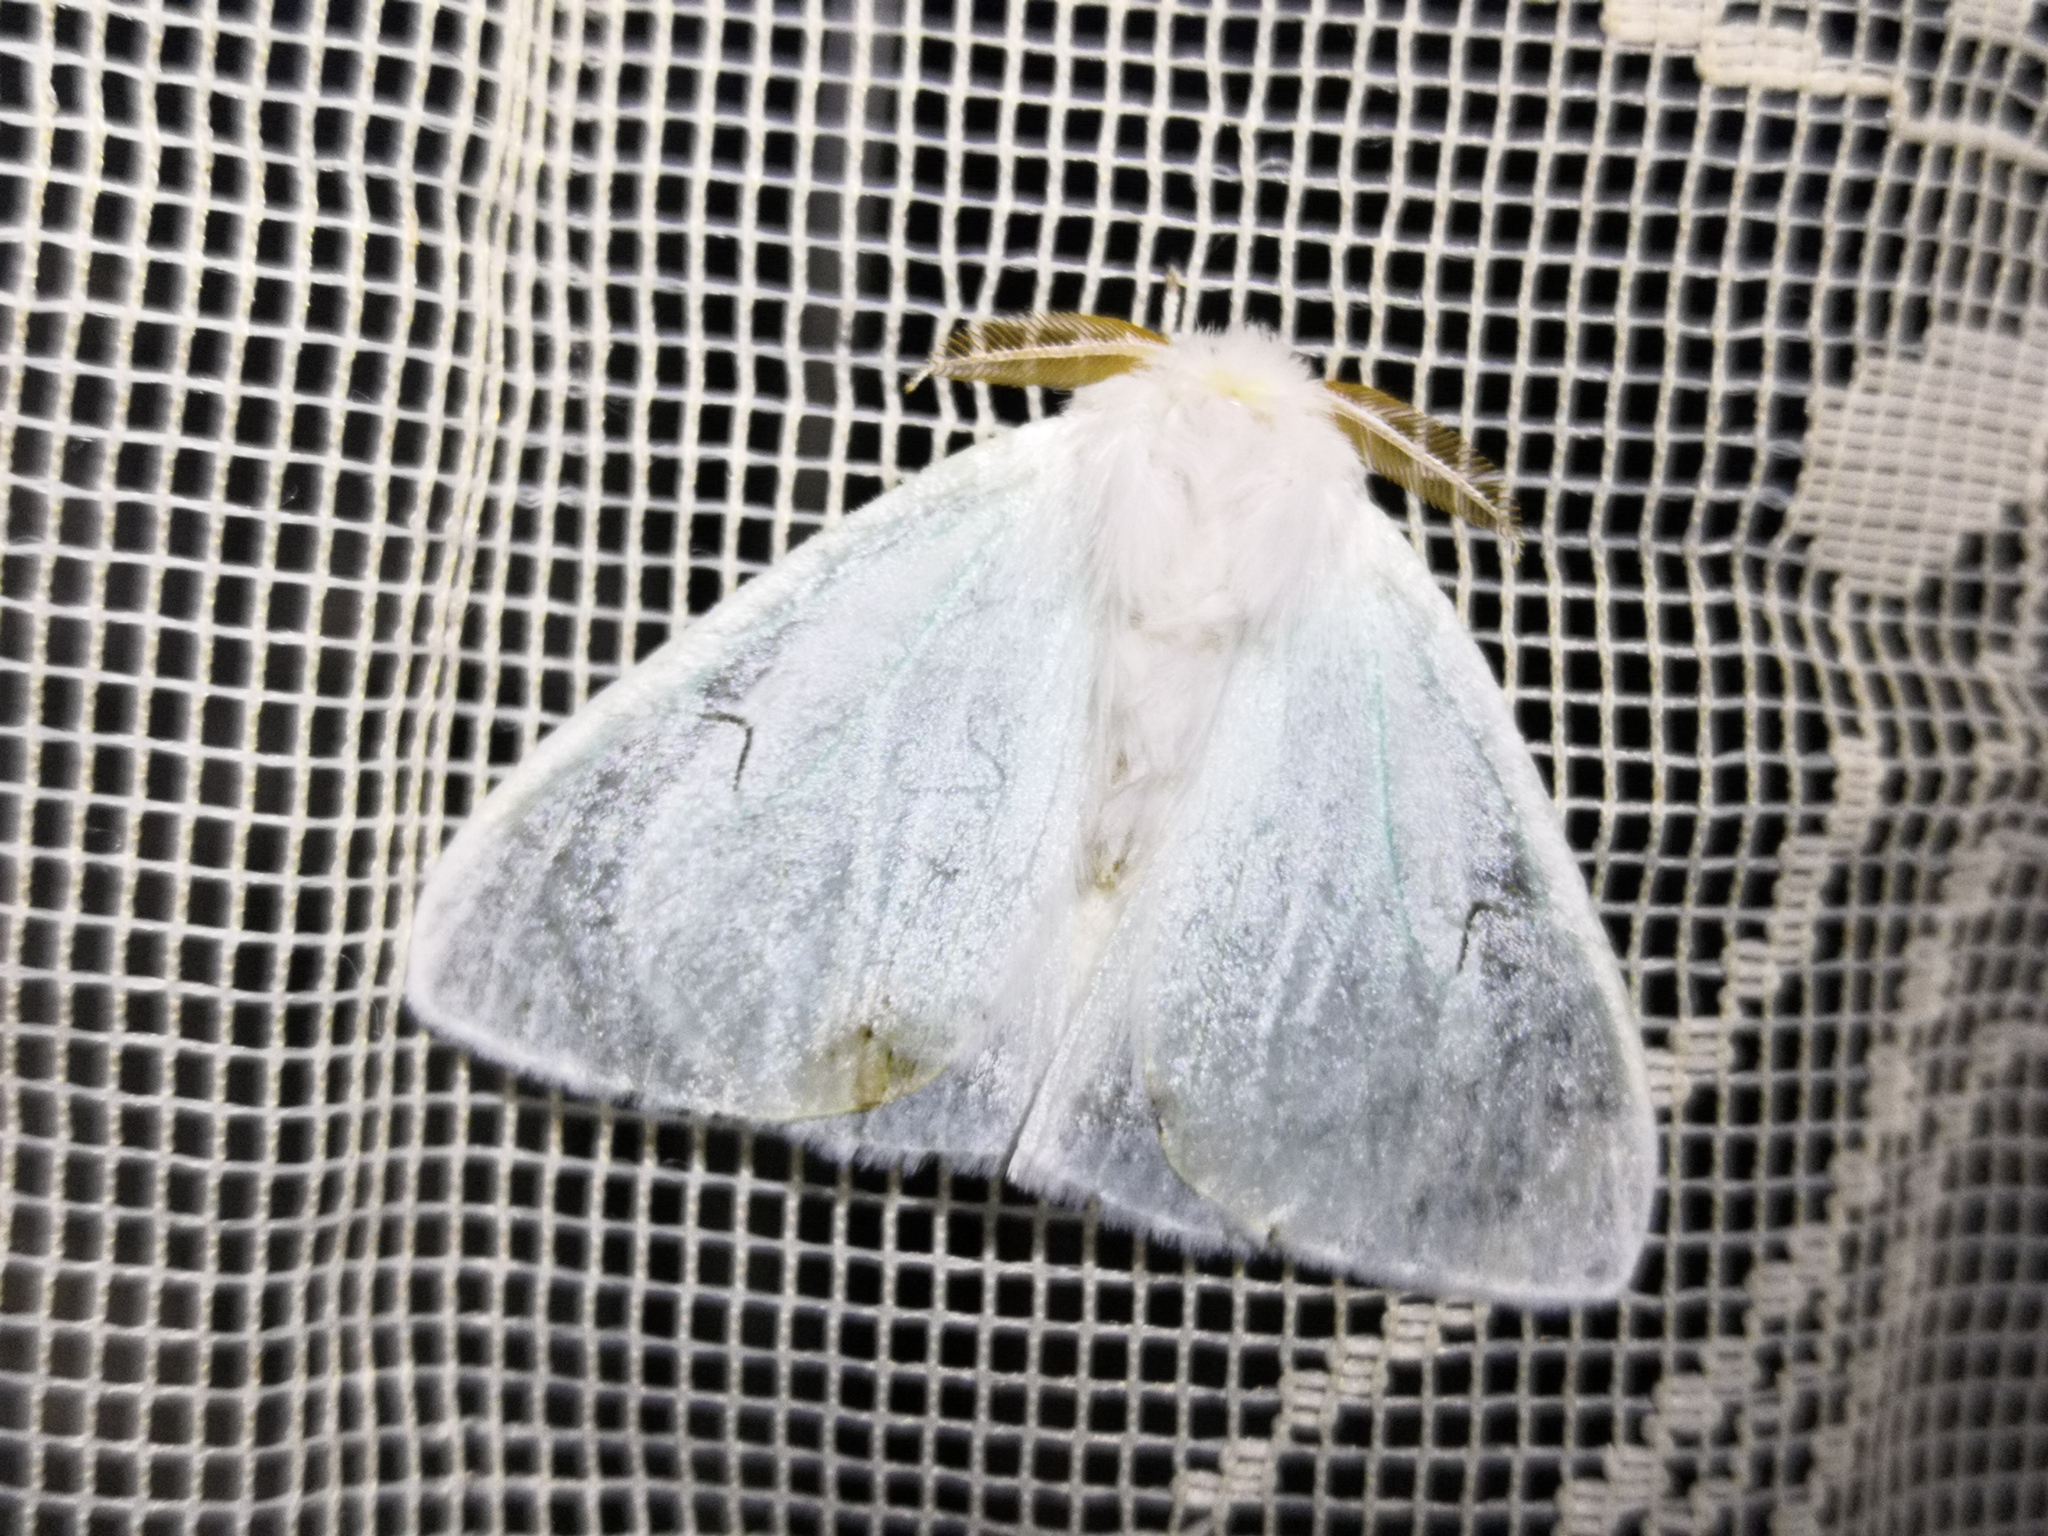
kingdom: Animalia
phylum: Arthropoda
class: Insecta
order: Lepidoptera
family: Erebidae
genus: Arctornis
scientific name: Arctornis l-nigrum
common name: Black v moth
